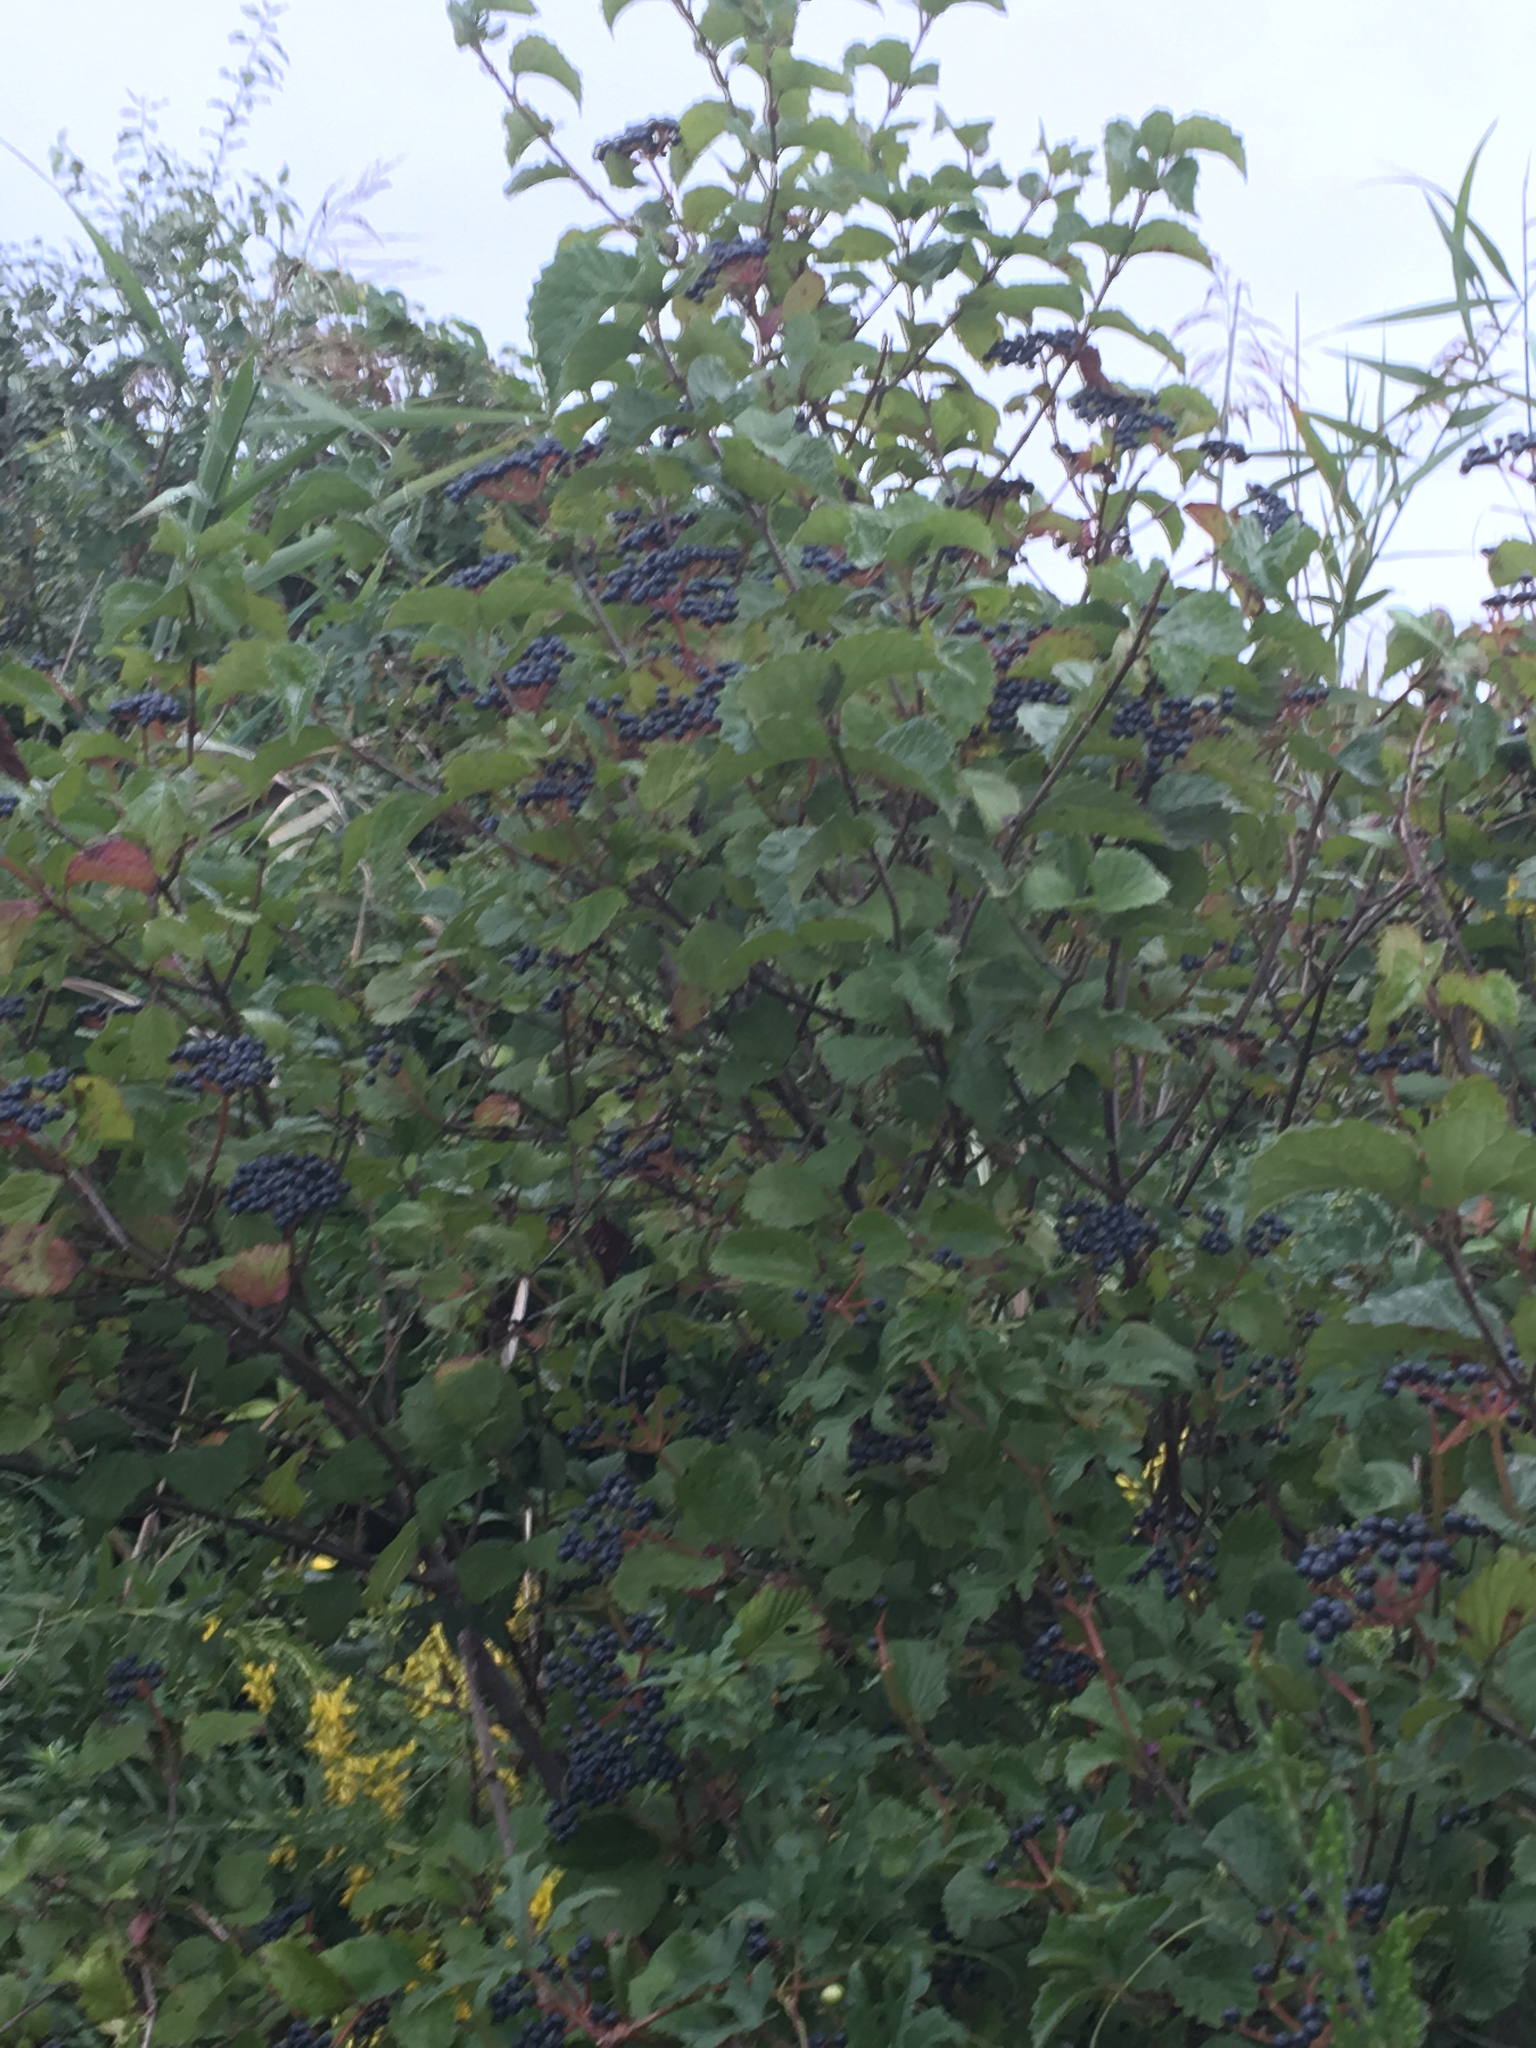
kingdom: Plantae
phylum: Tracheophyta
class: Magnoliopsida
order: Dipsacales
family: Viburnaceae
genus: Viburnum
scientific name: Viburnum dentatum
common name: Arrow-wood
